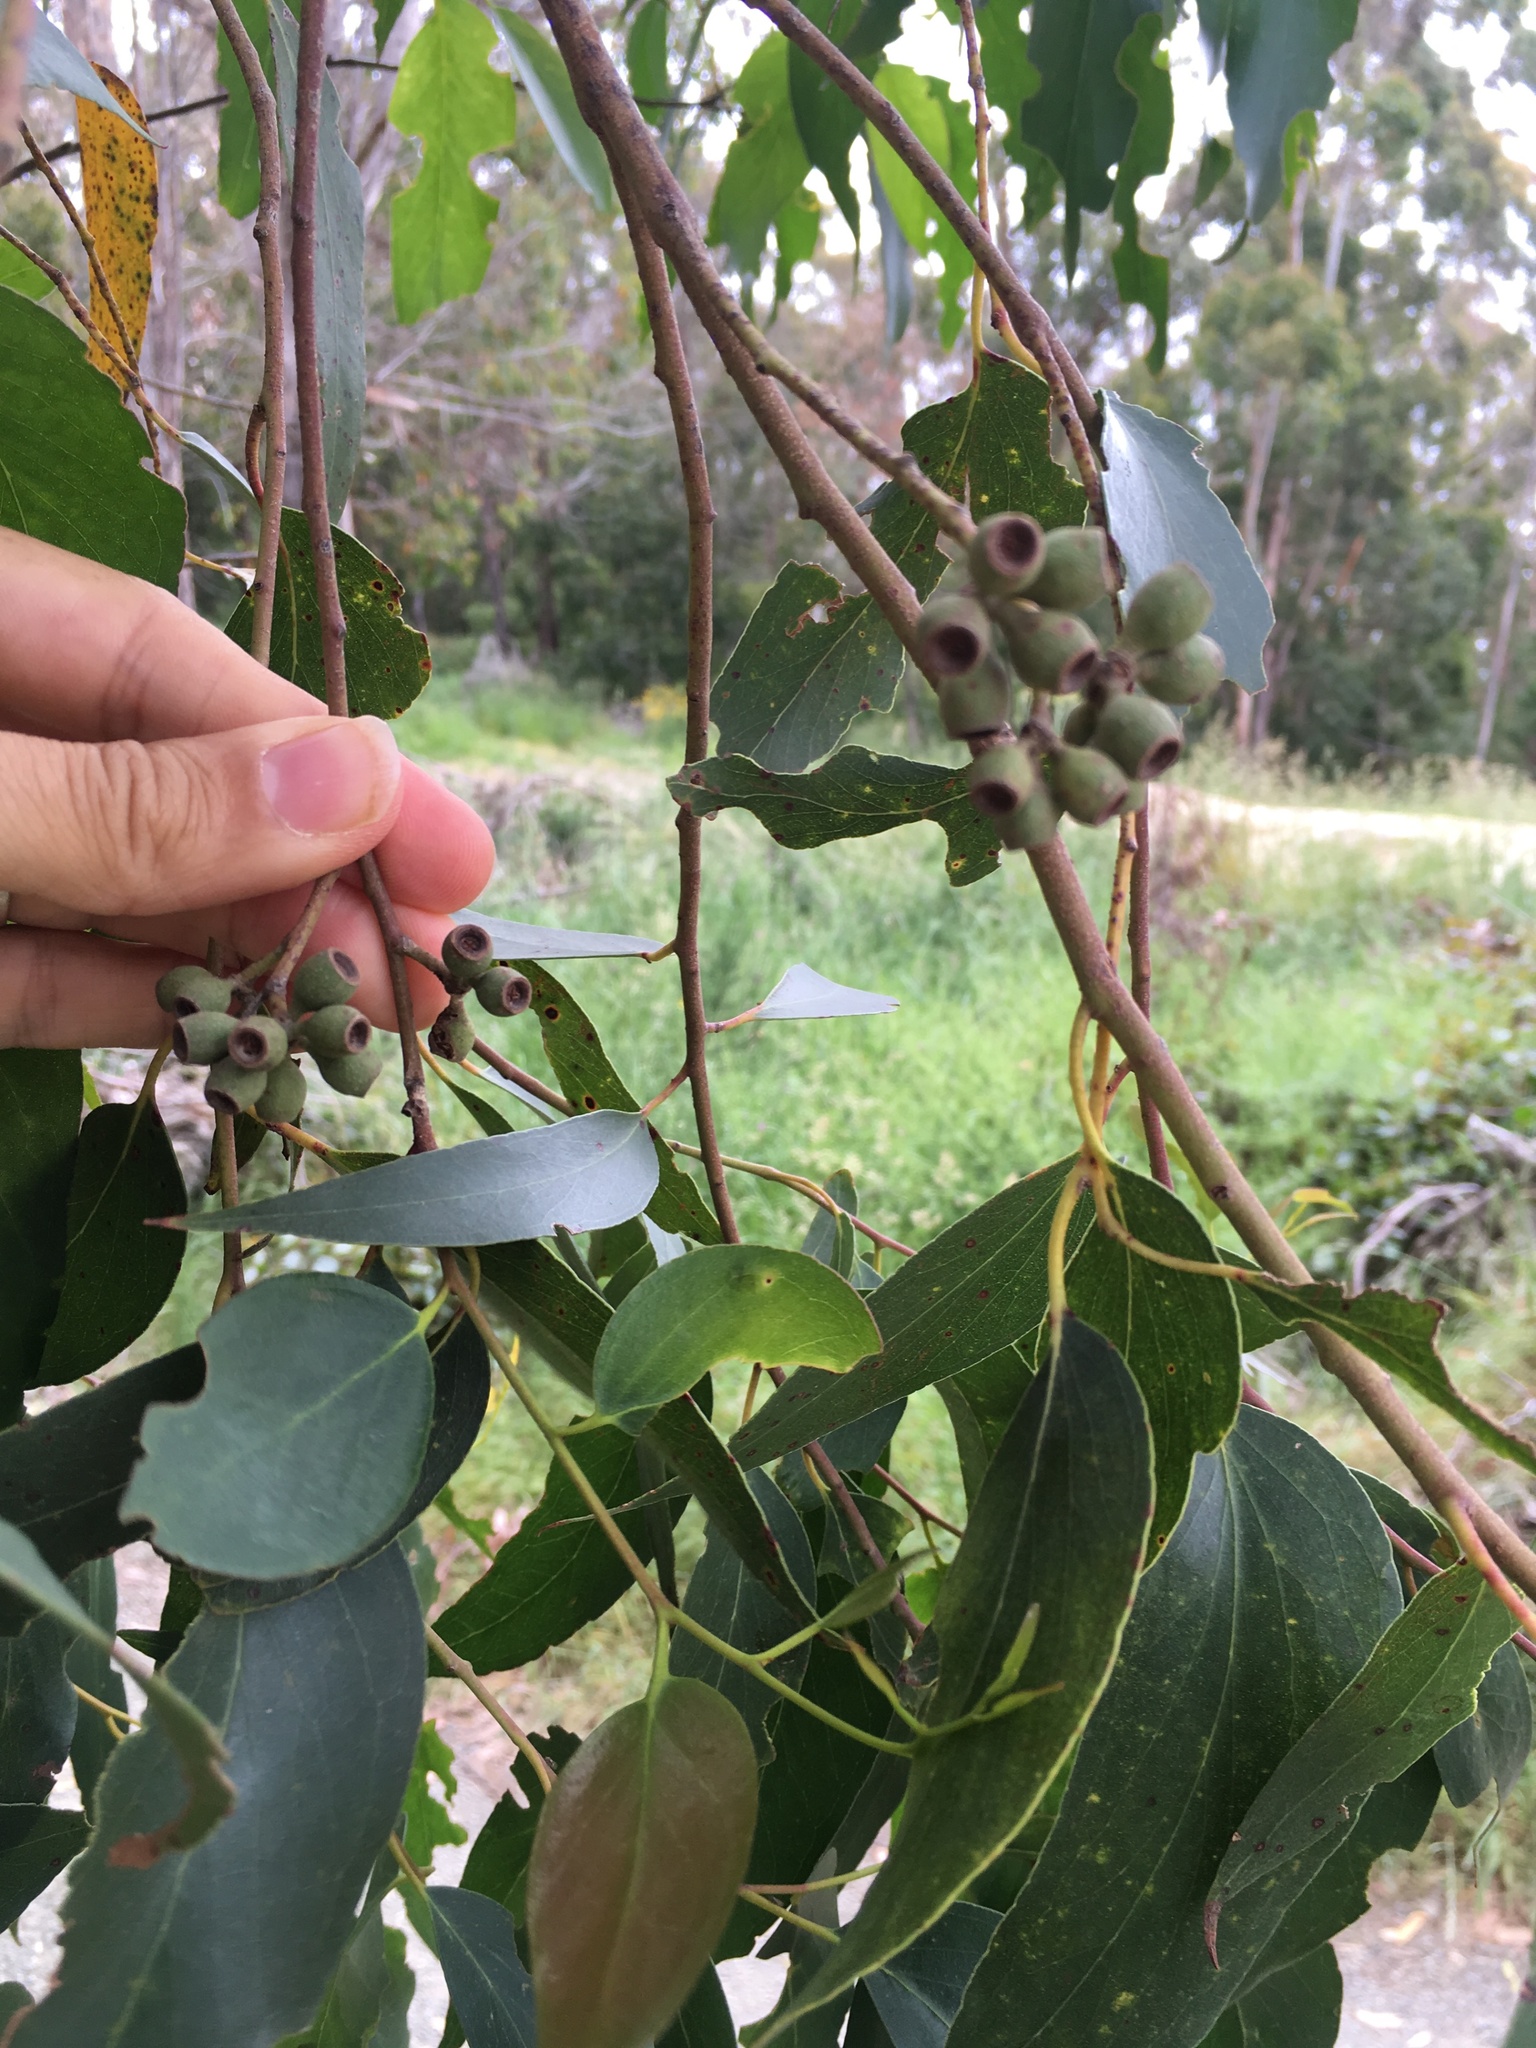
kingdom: Plantae
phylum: Tracheophyta
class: Magnoliopsida
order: Myrtales
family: Myrtaceae
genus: Eucalyptus
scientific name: Eucalyptus obliqua
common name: Messmate stringybark
